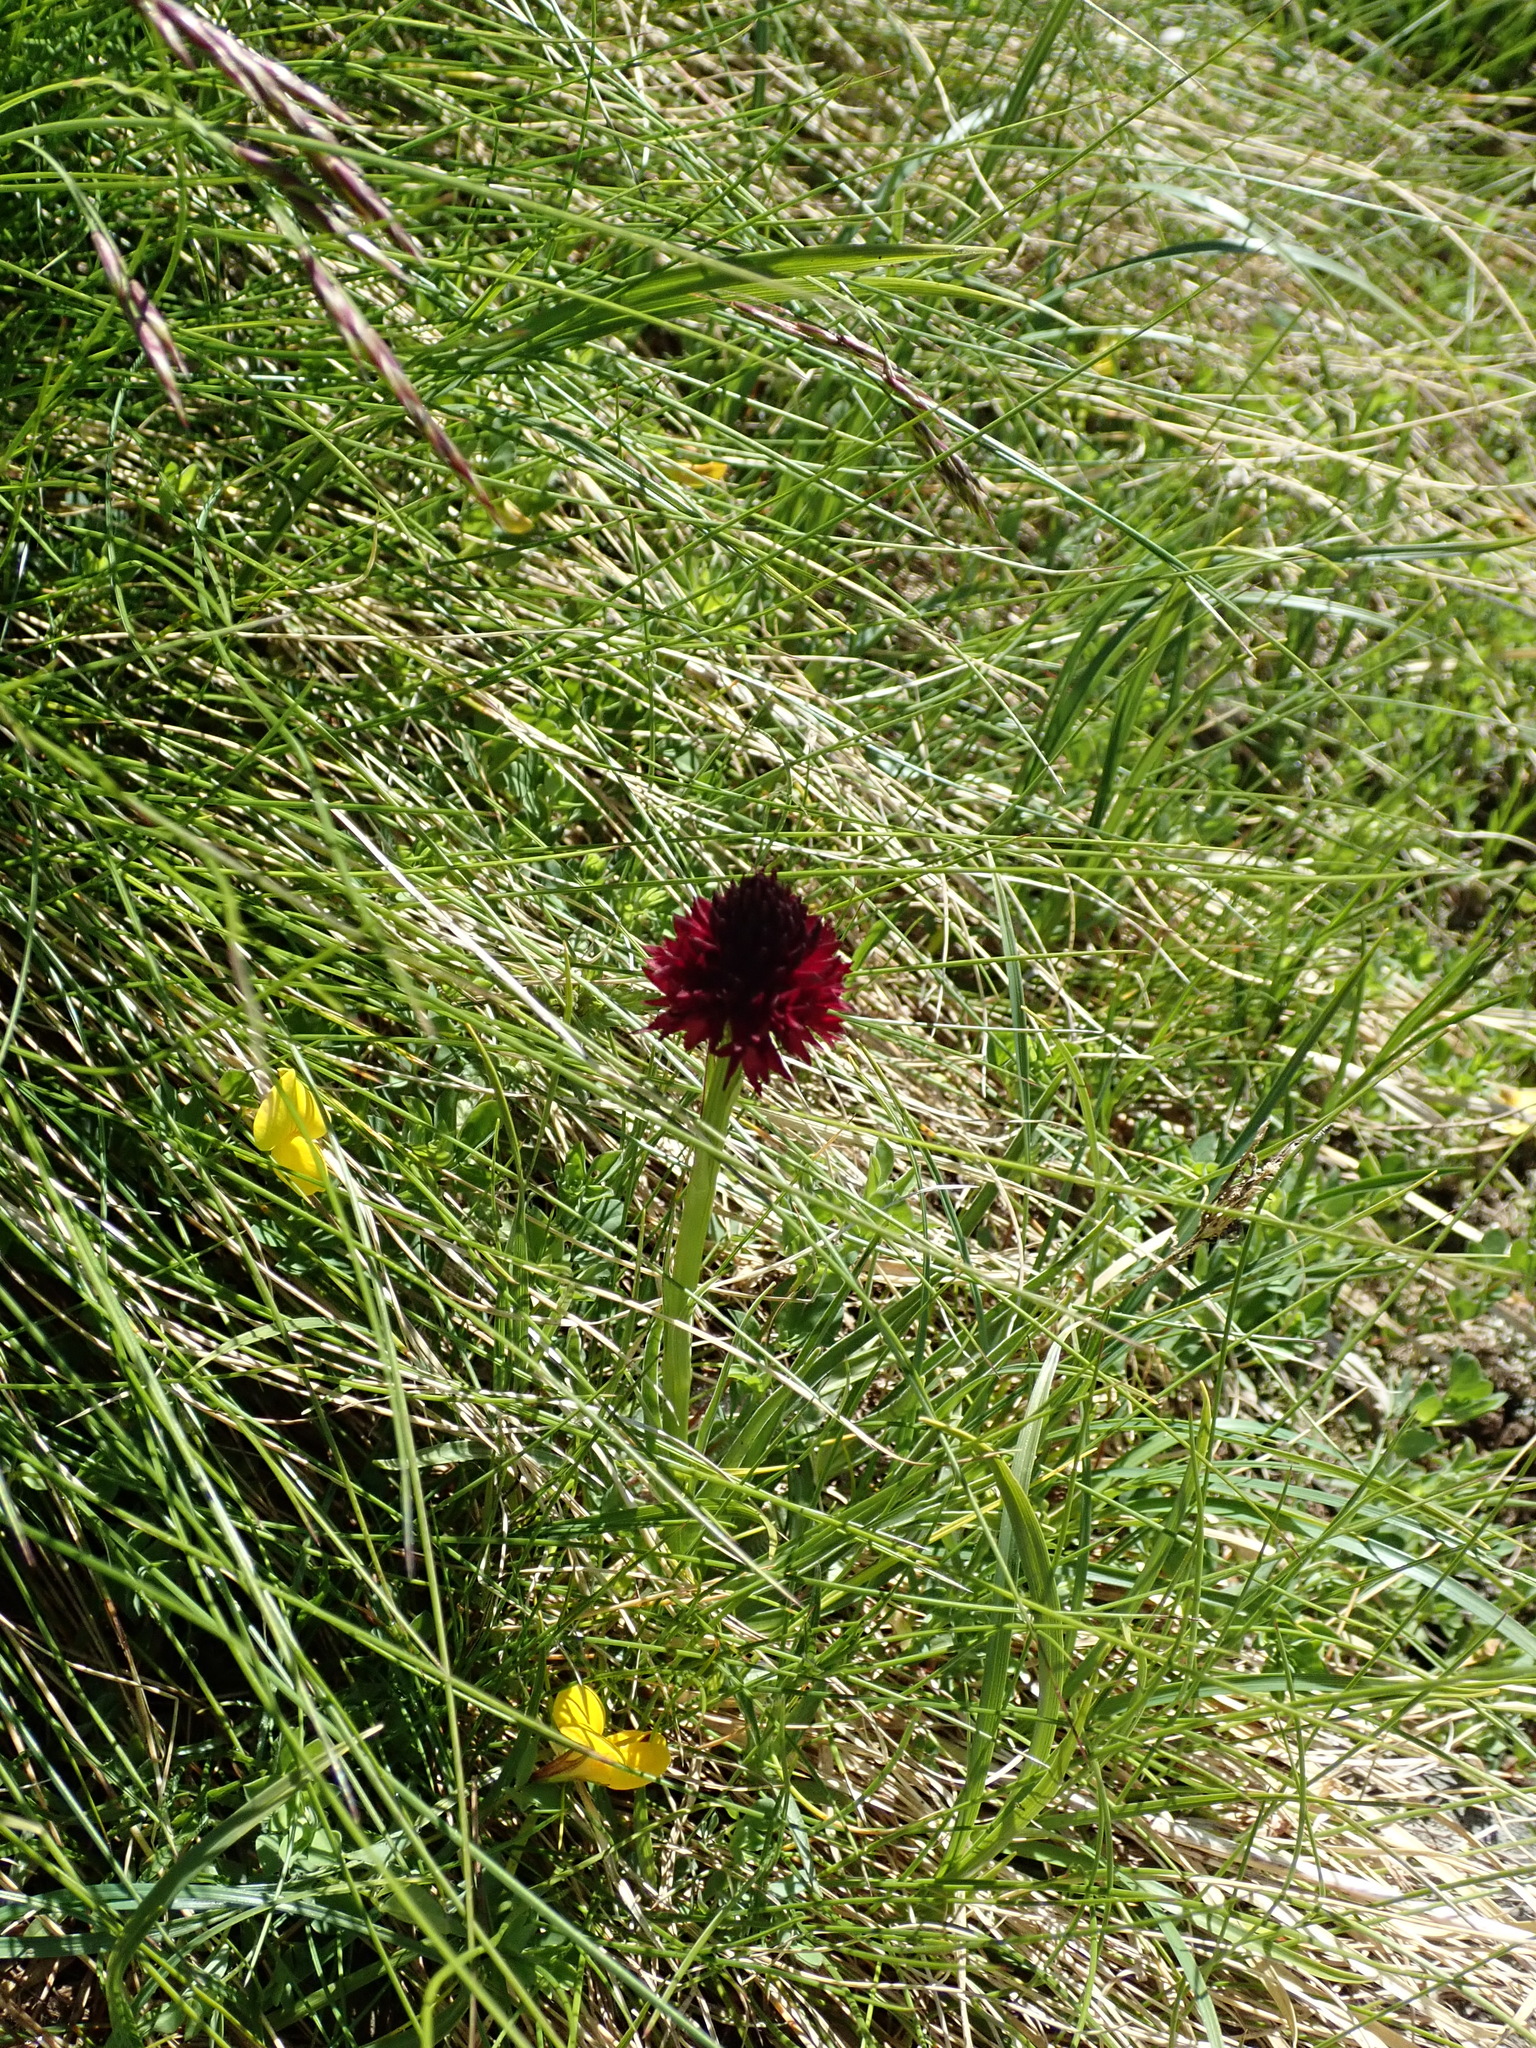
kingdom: Plantae
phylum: Tracheophyta
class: Liliopsida
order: Asparagales
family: Orchidaceae
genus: Gymnadenia
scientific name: Gymnadenia rhellicani
